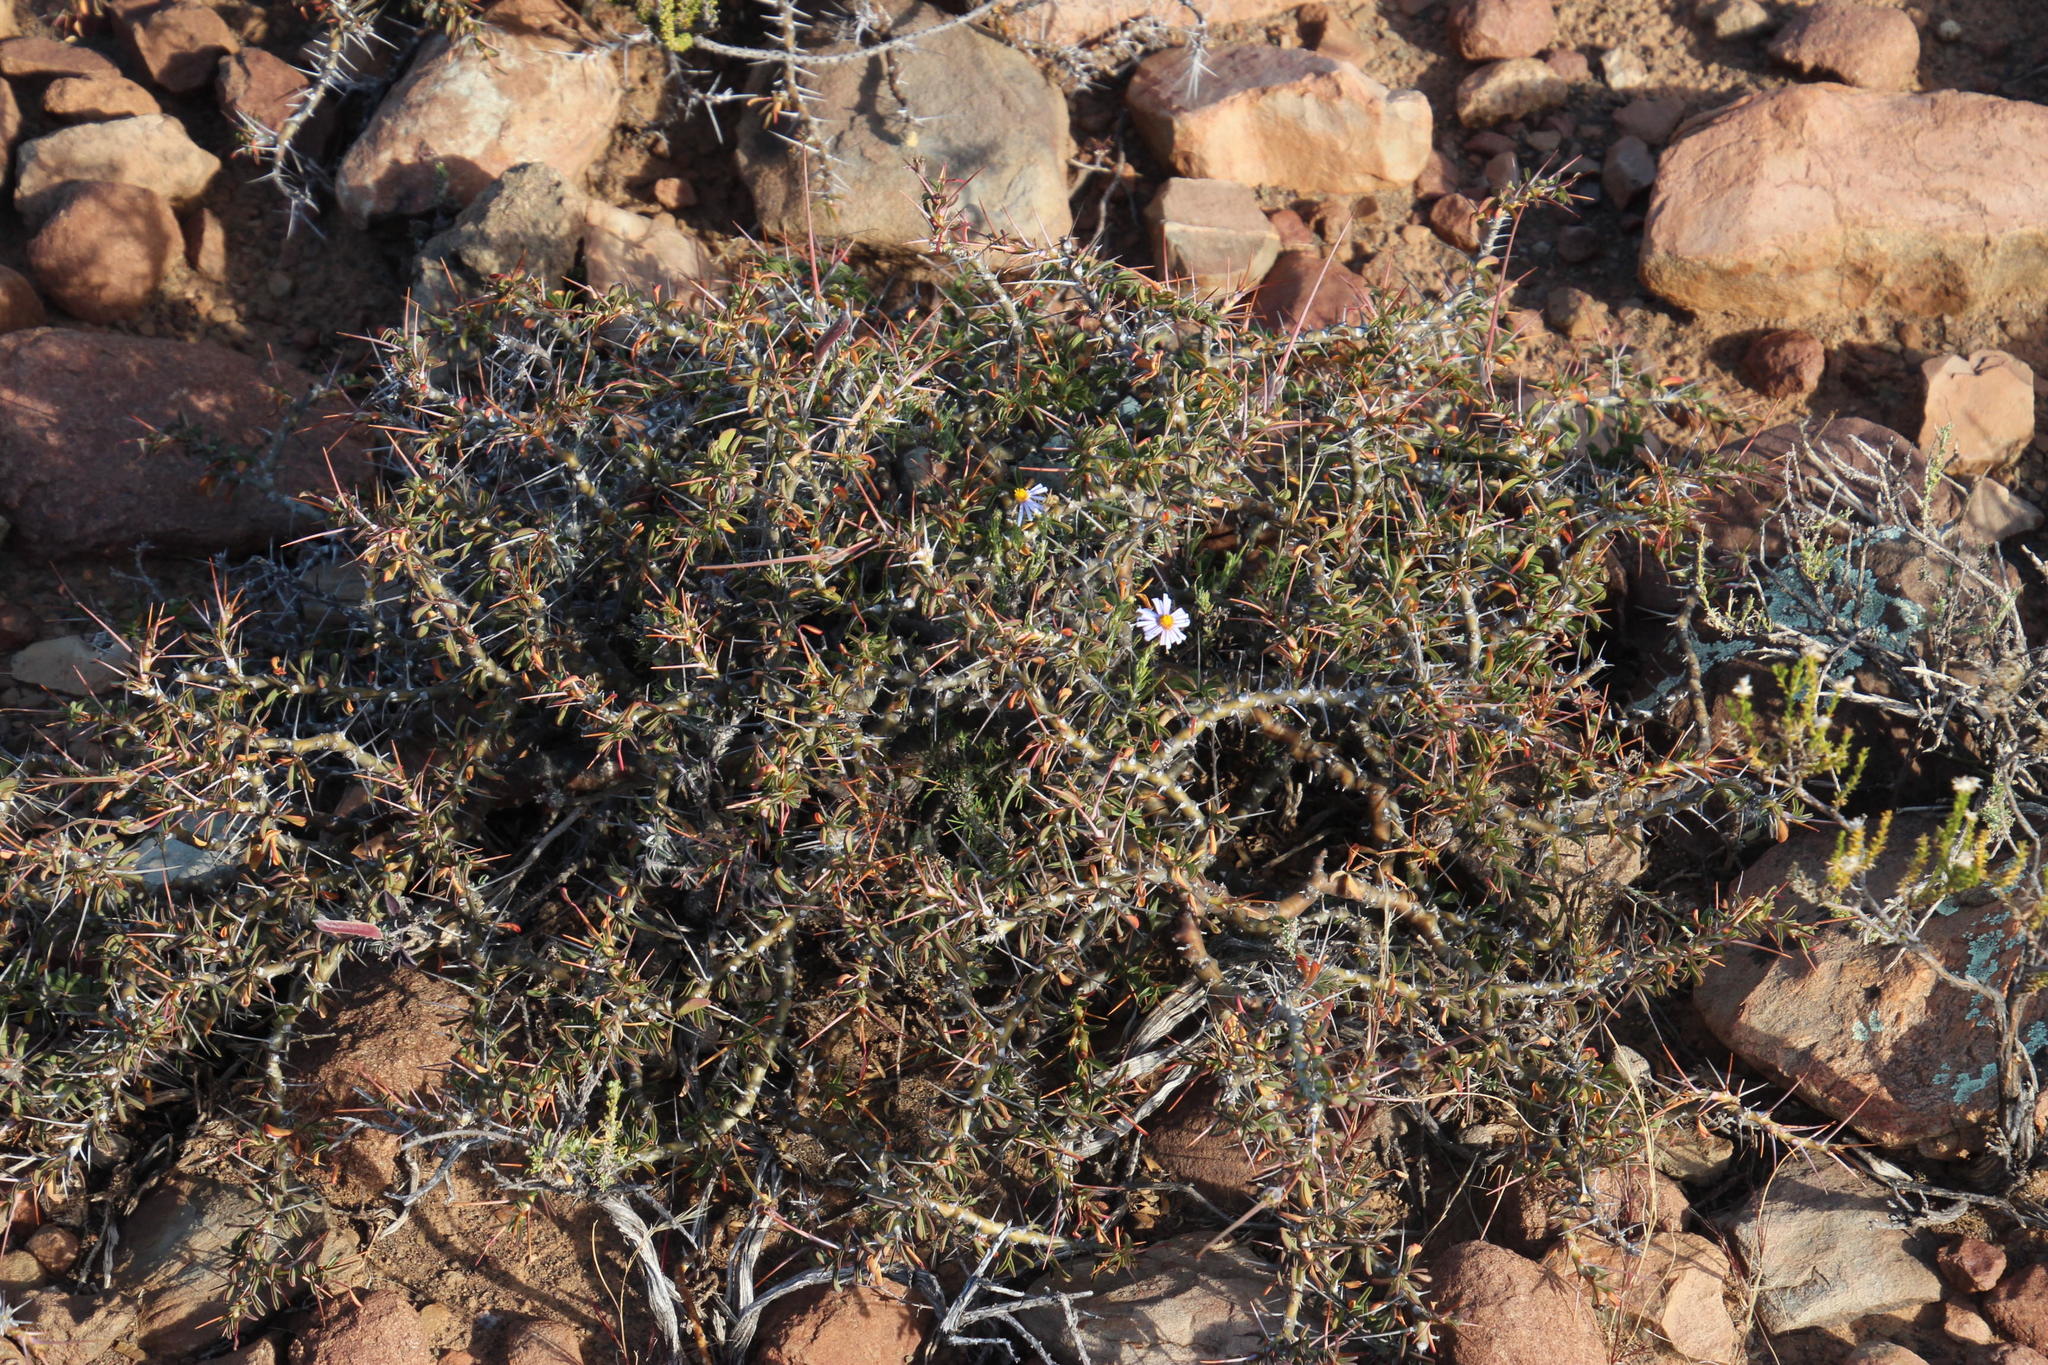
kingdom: Plantae
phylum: Tracheophyta
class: Magnoliopsida
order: Geraniales
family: Geraniaceae
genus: Monsonia
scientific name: Monsonia camdeboensis
